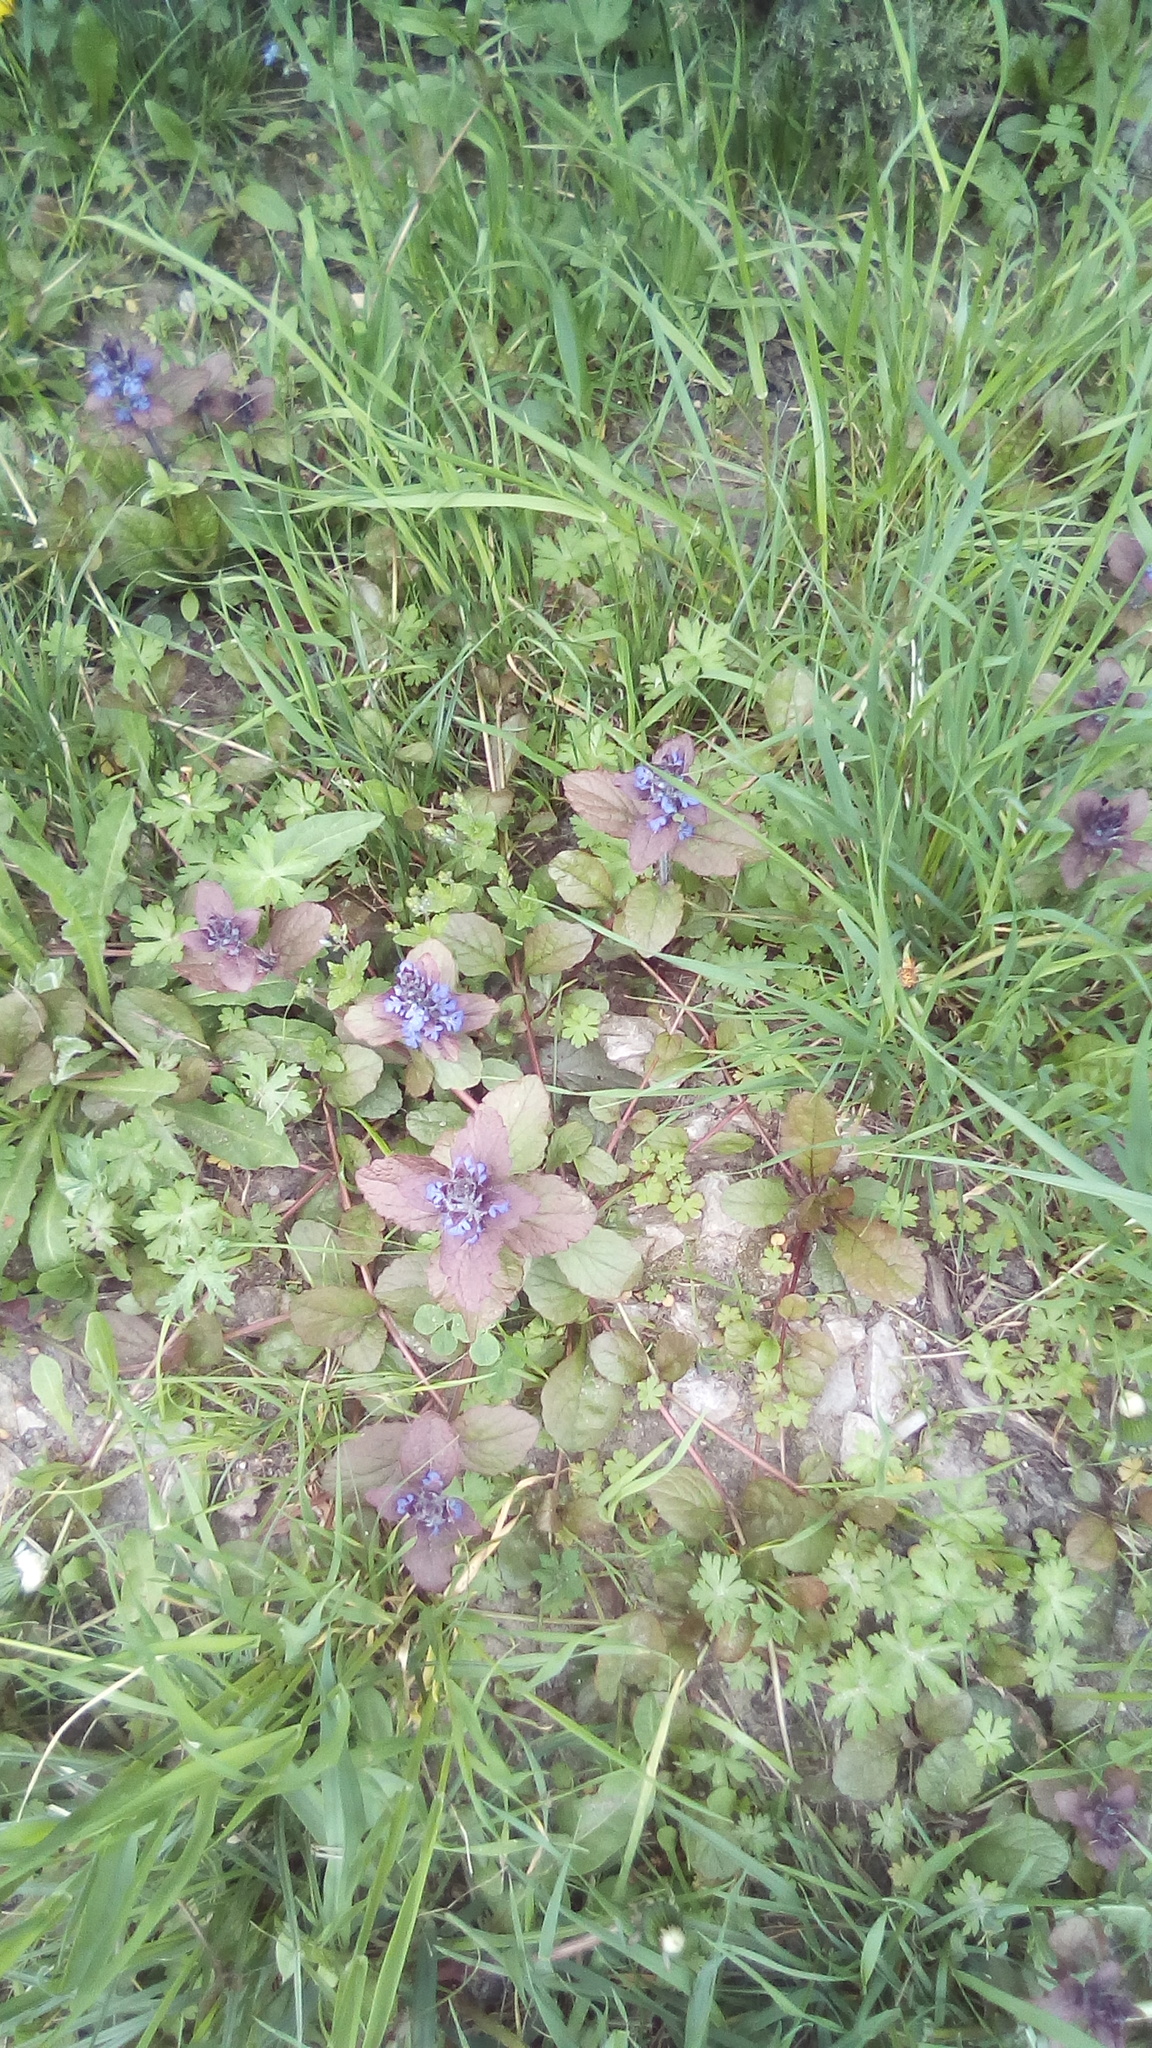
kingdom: Plantae
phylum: Tracheophyta
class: Magnoliopsida
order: Lamiales
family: Lamiaceae
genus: Ajuga
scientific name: Ajuga reptans
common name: Bugle
